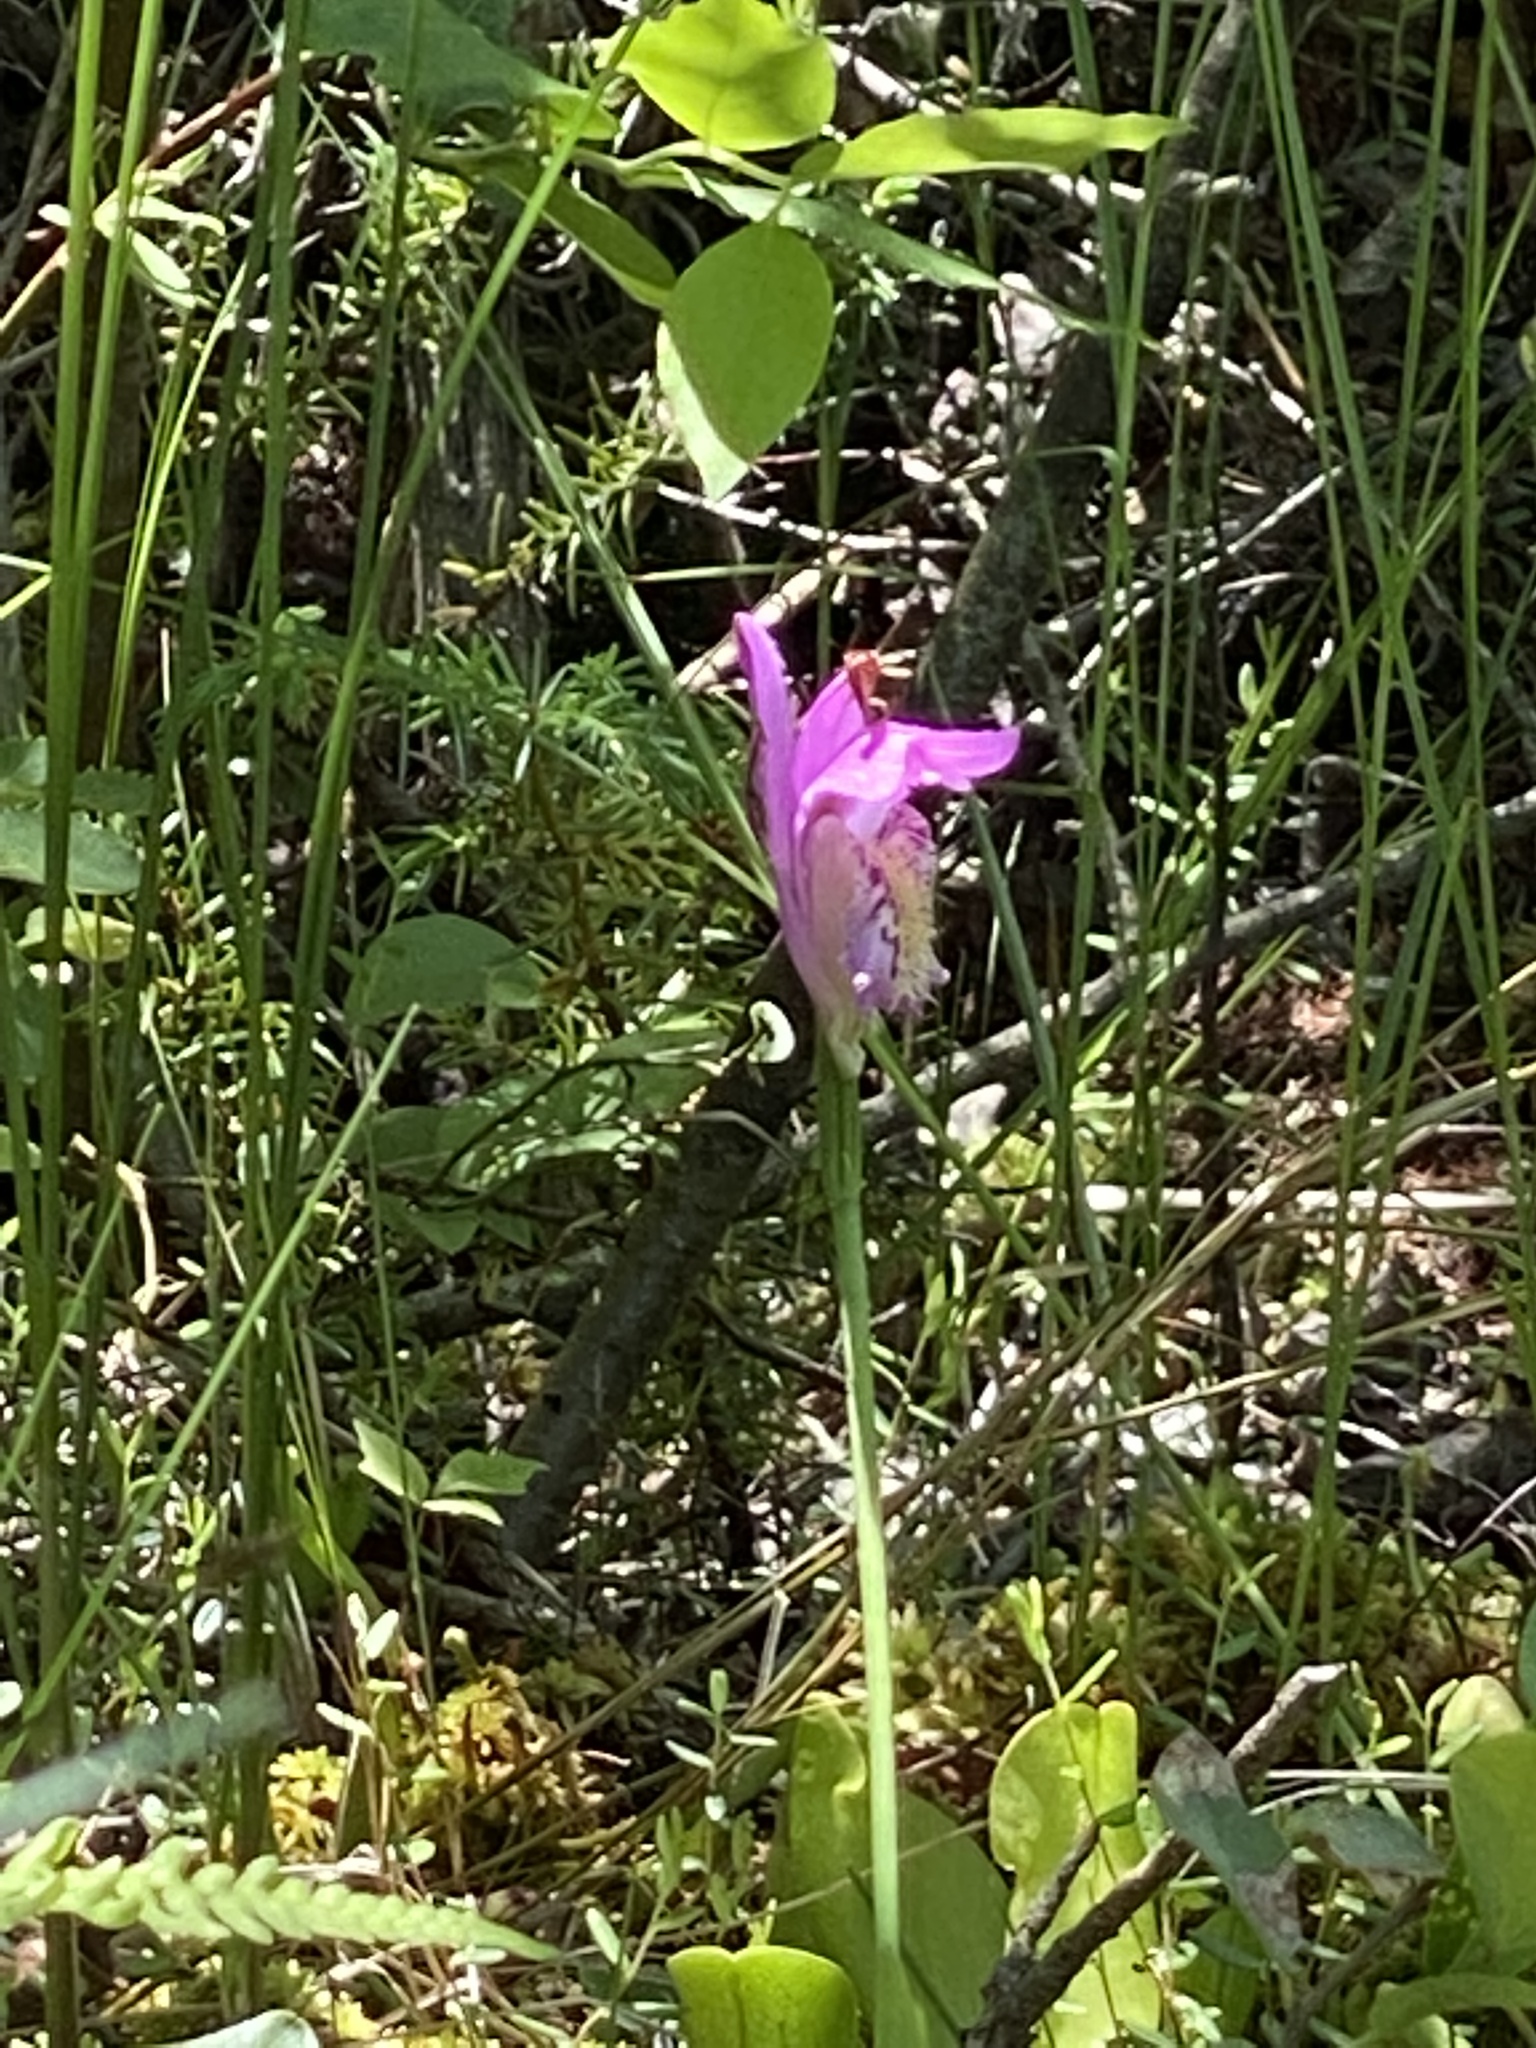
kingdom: Plantae
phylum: Tracheophyta
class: Liliopsida
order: Asparagales
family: Orchidaceae
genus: Arethusa
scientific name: Arethusa bulbosa
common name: Arethusa
